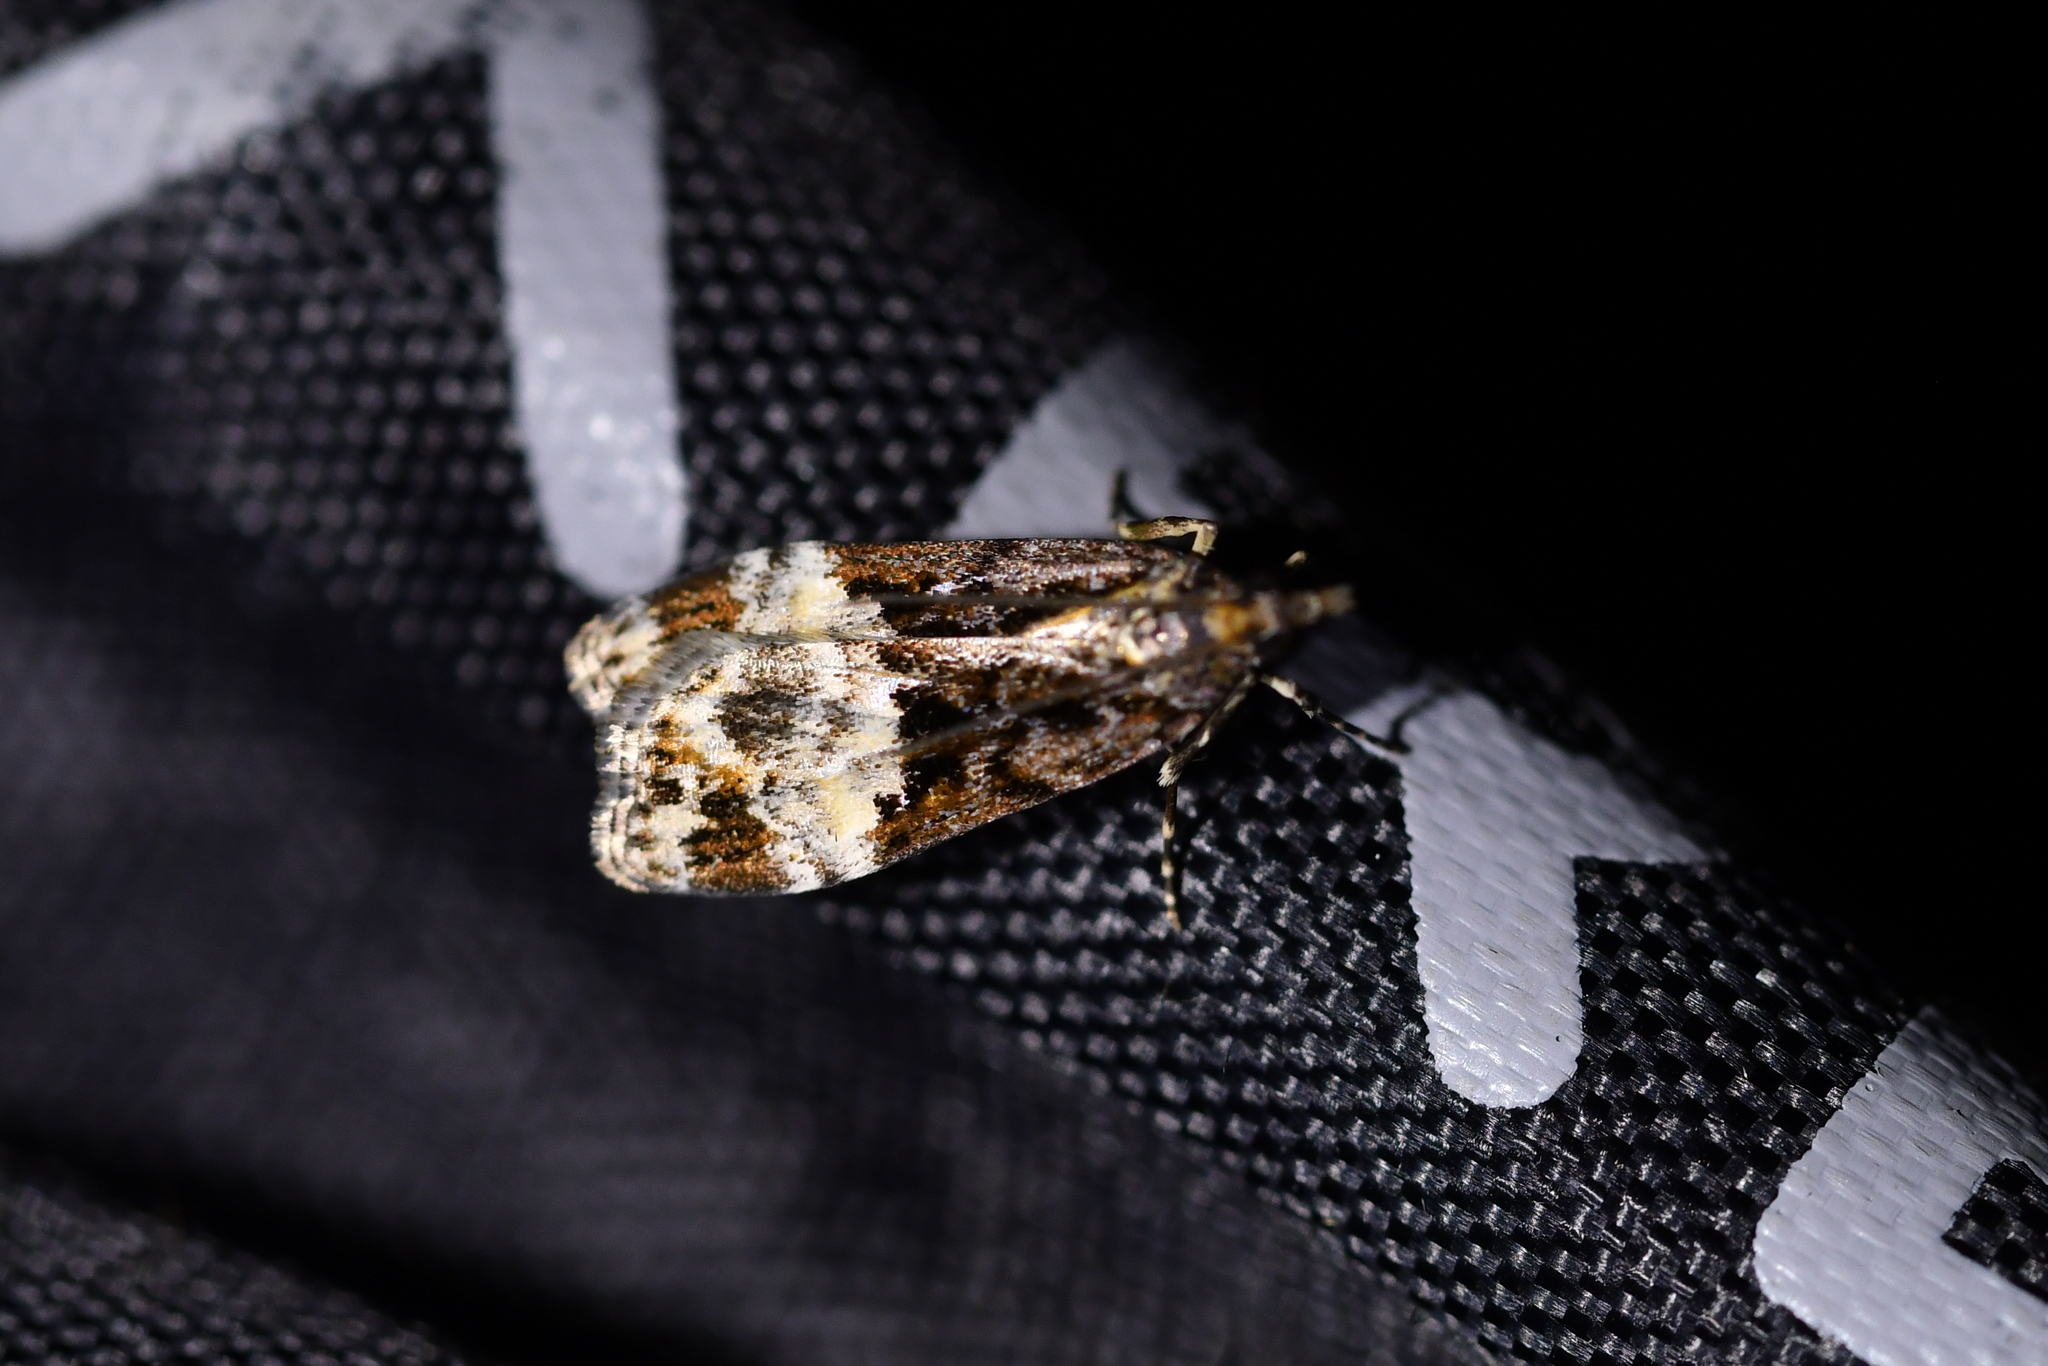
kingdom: Animalia
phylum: Arthropoda
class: Insecta
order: Lepidoptera
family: Crambidae
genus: Scoparia
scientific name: Scoparia minusculalis
